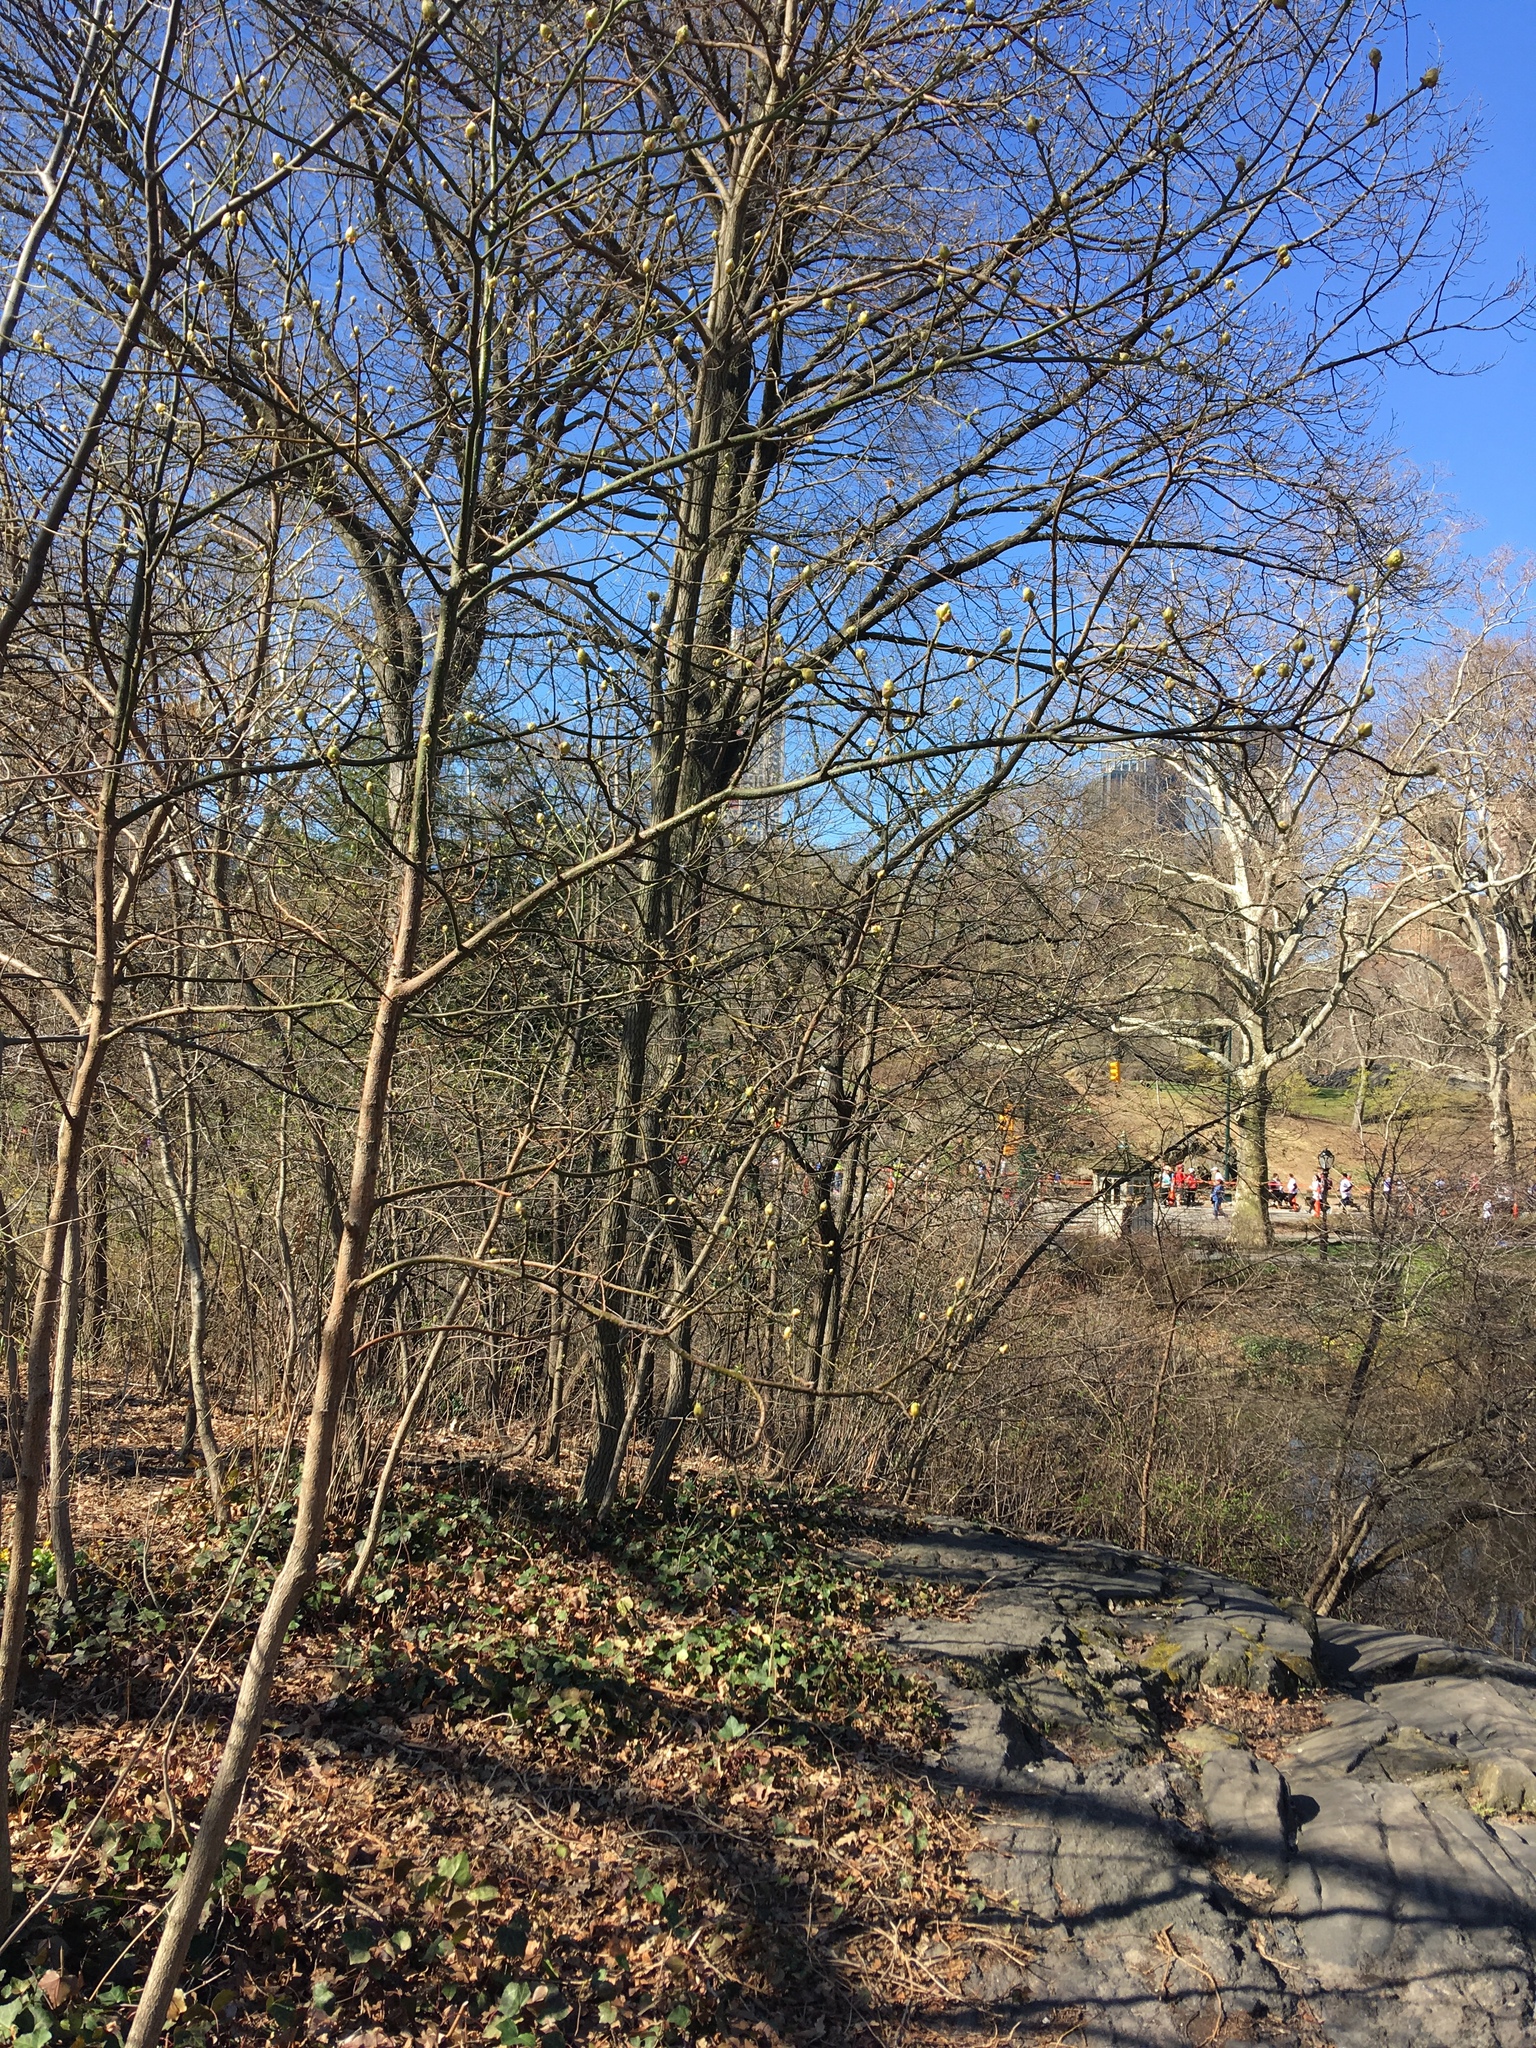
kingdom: Plantae
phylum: Tracheophyta
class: Magnoliopsida
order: Laurales
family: Lauraceae
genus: Sassafras
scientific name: Sassafras albidum
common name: Sassafras
